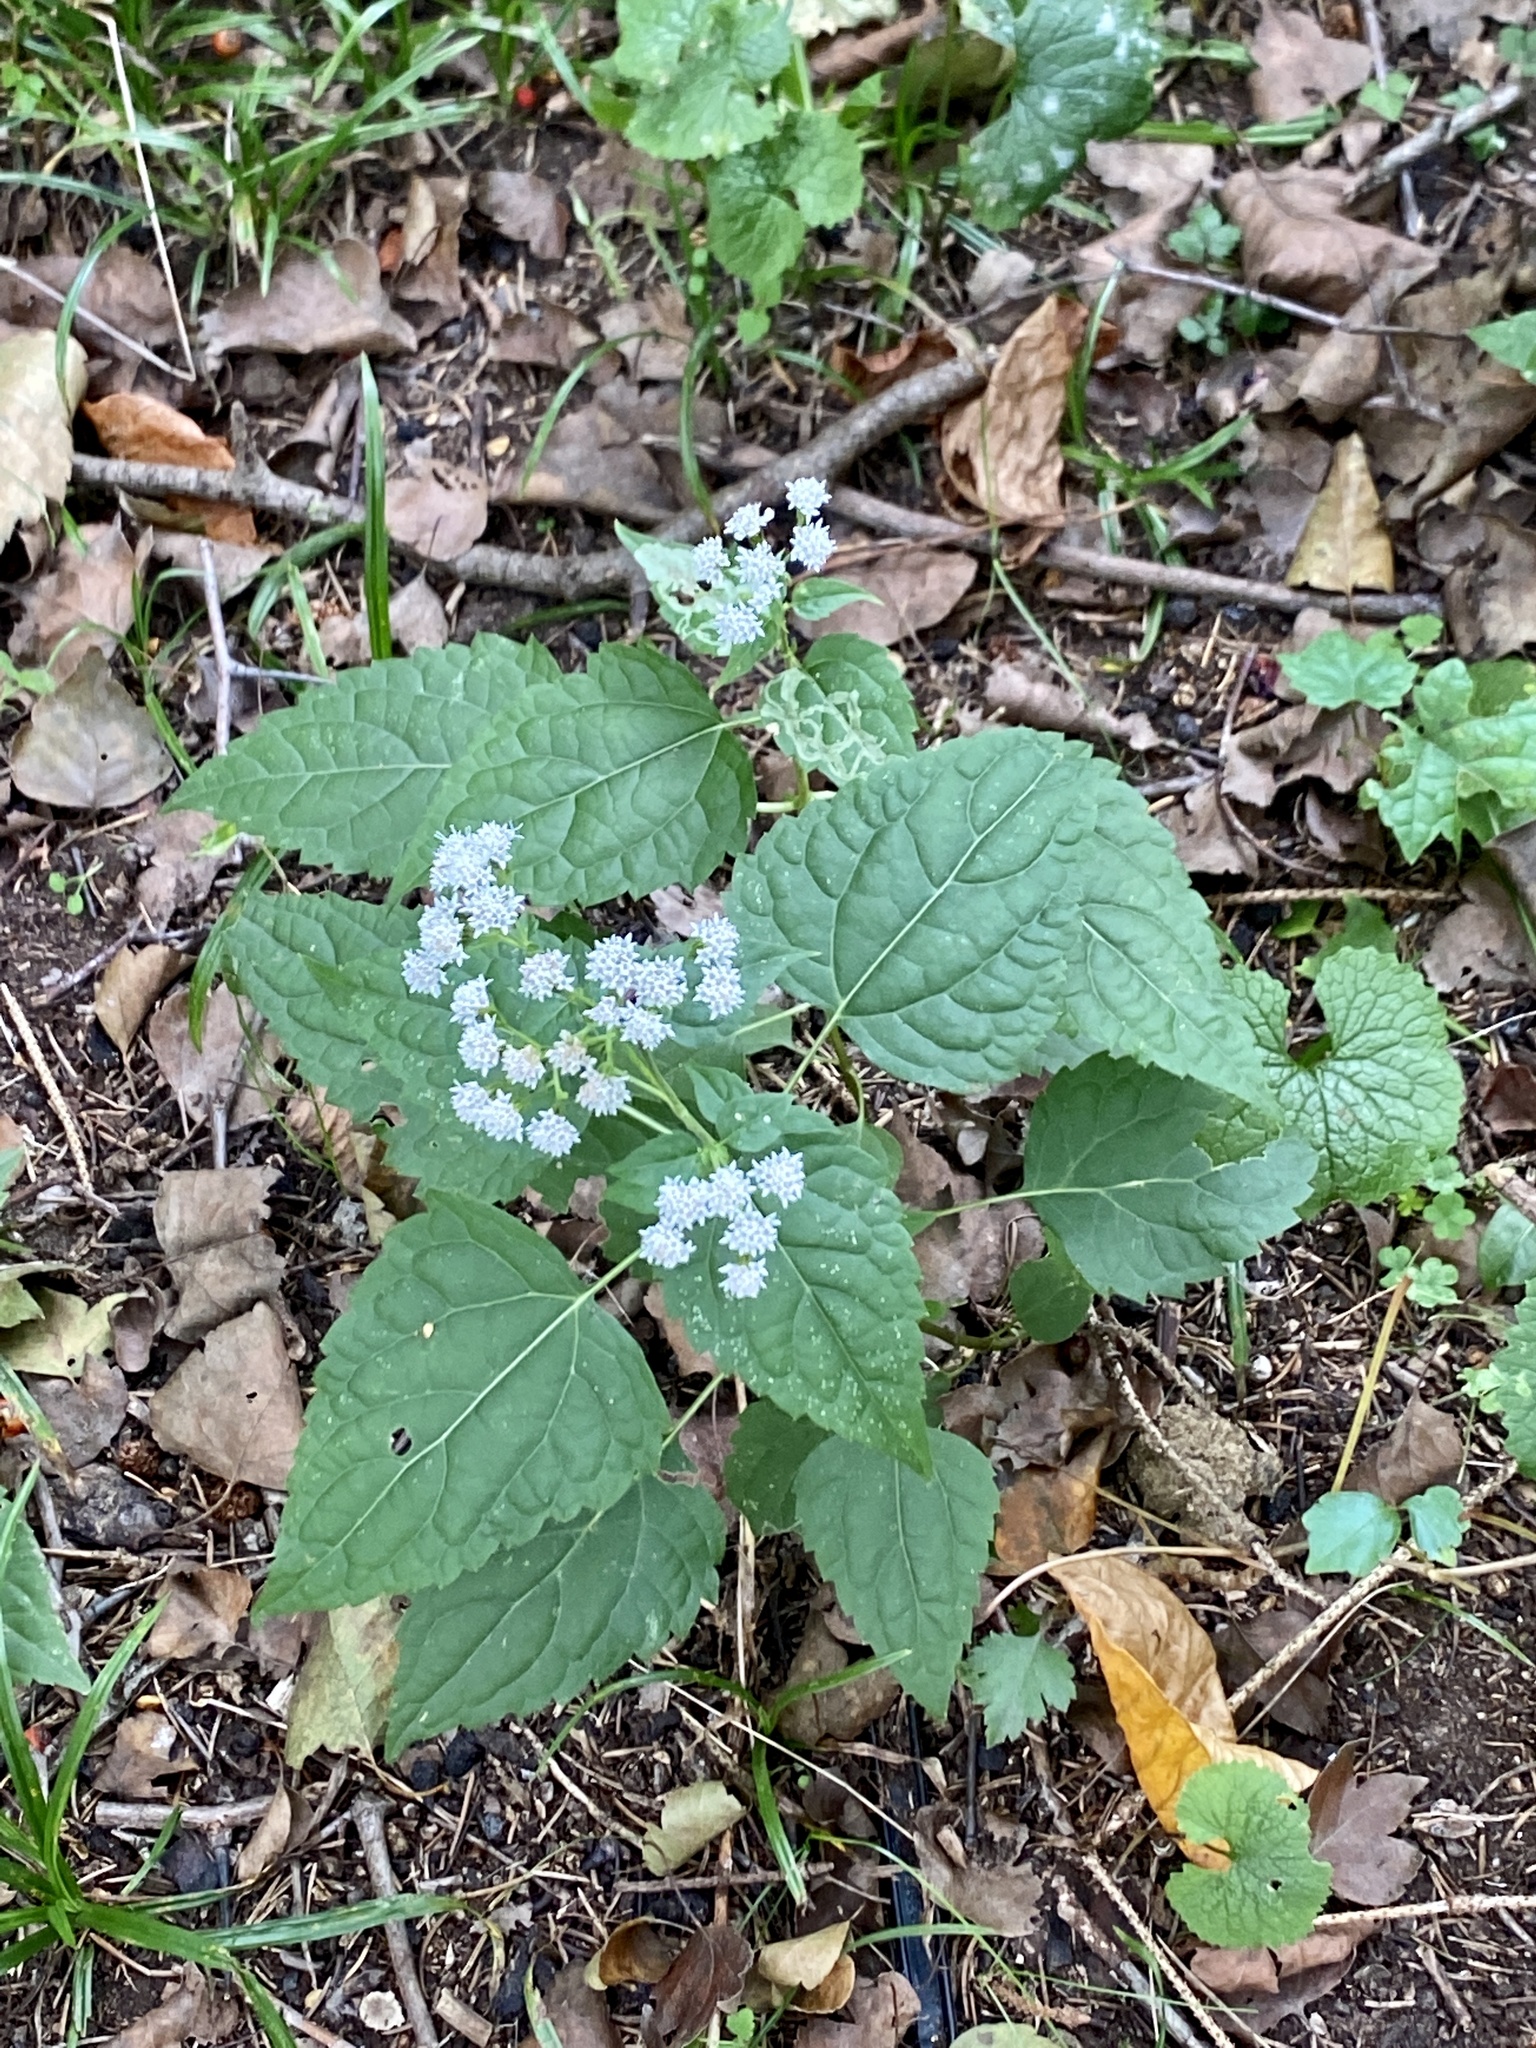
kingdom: Plantae
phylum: Tracheophyta
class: Magnoliopsida
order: Asterales
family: Asteraceae
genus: Ageratina
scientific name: Ageratina altissima
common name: White snakeroot
